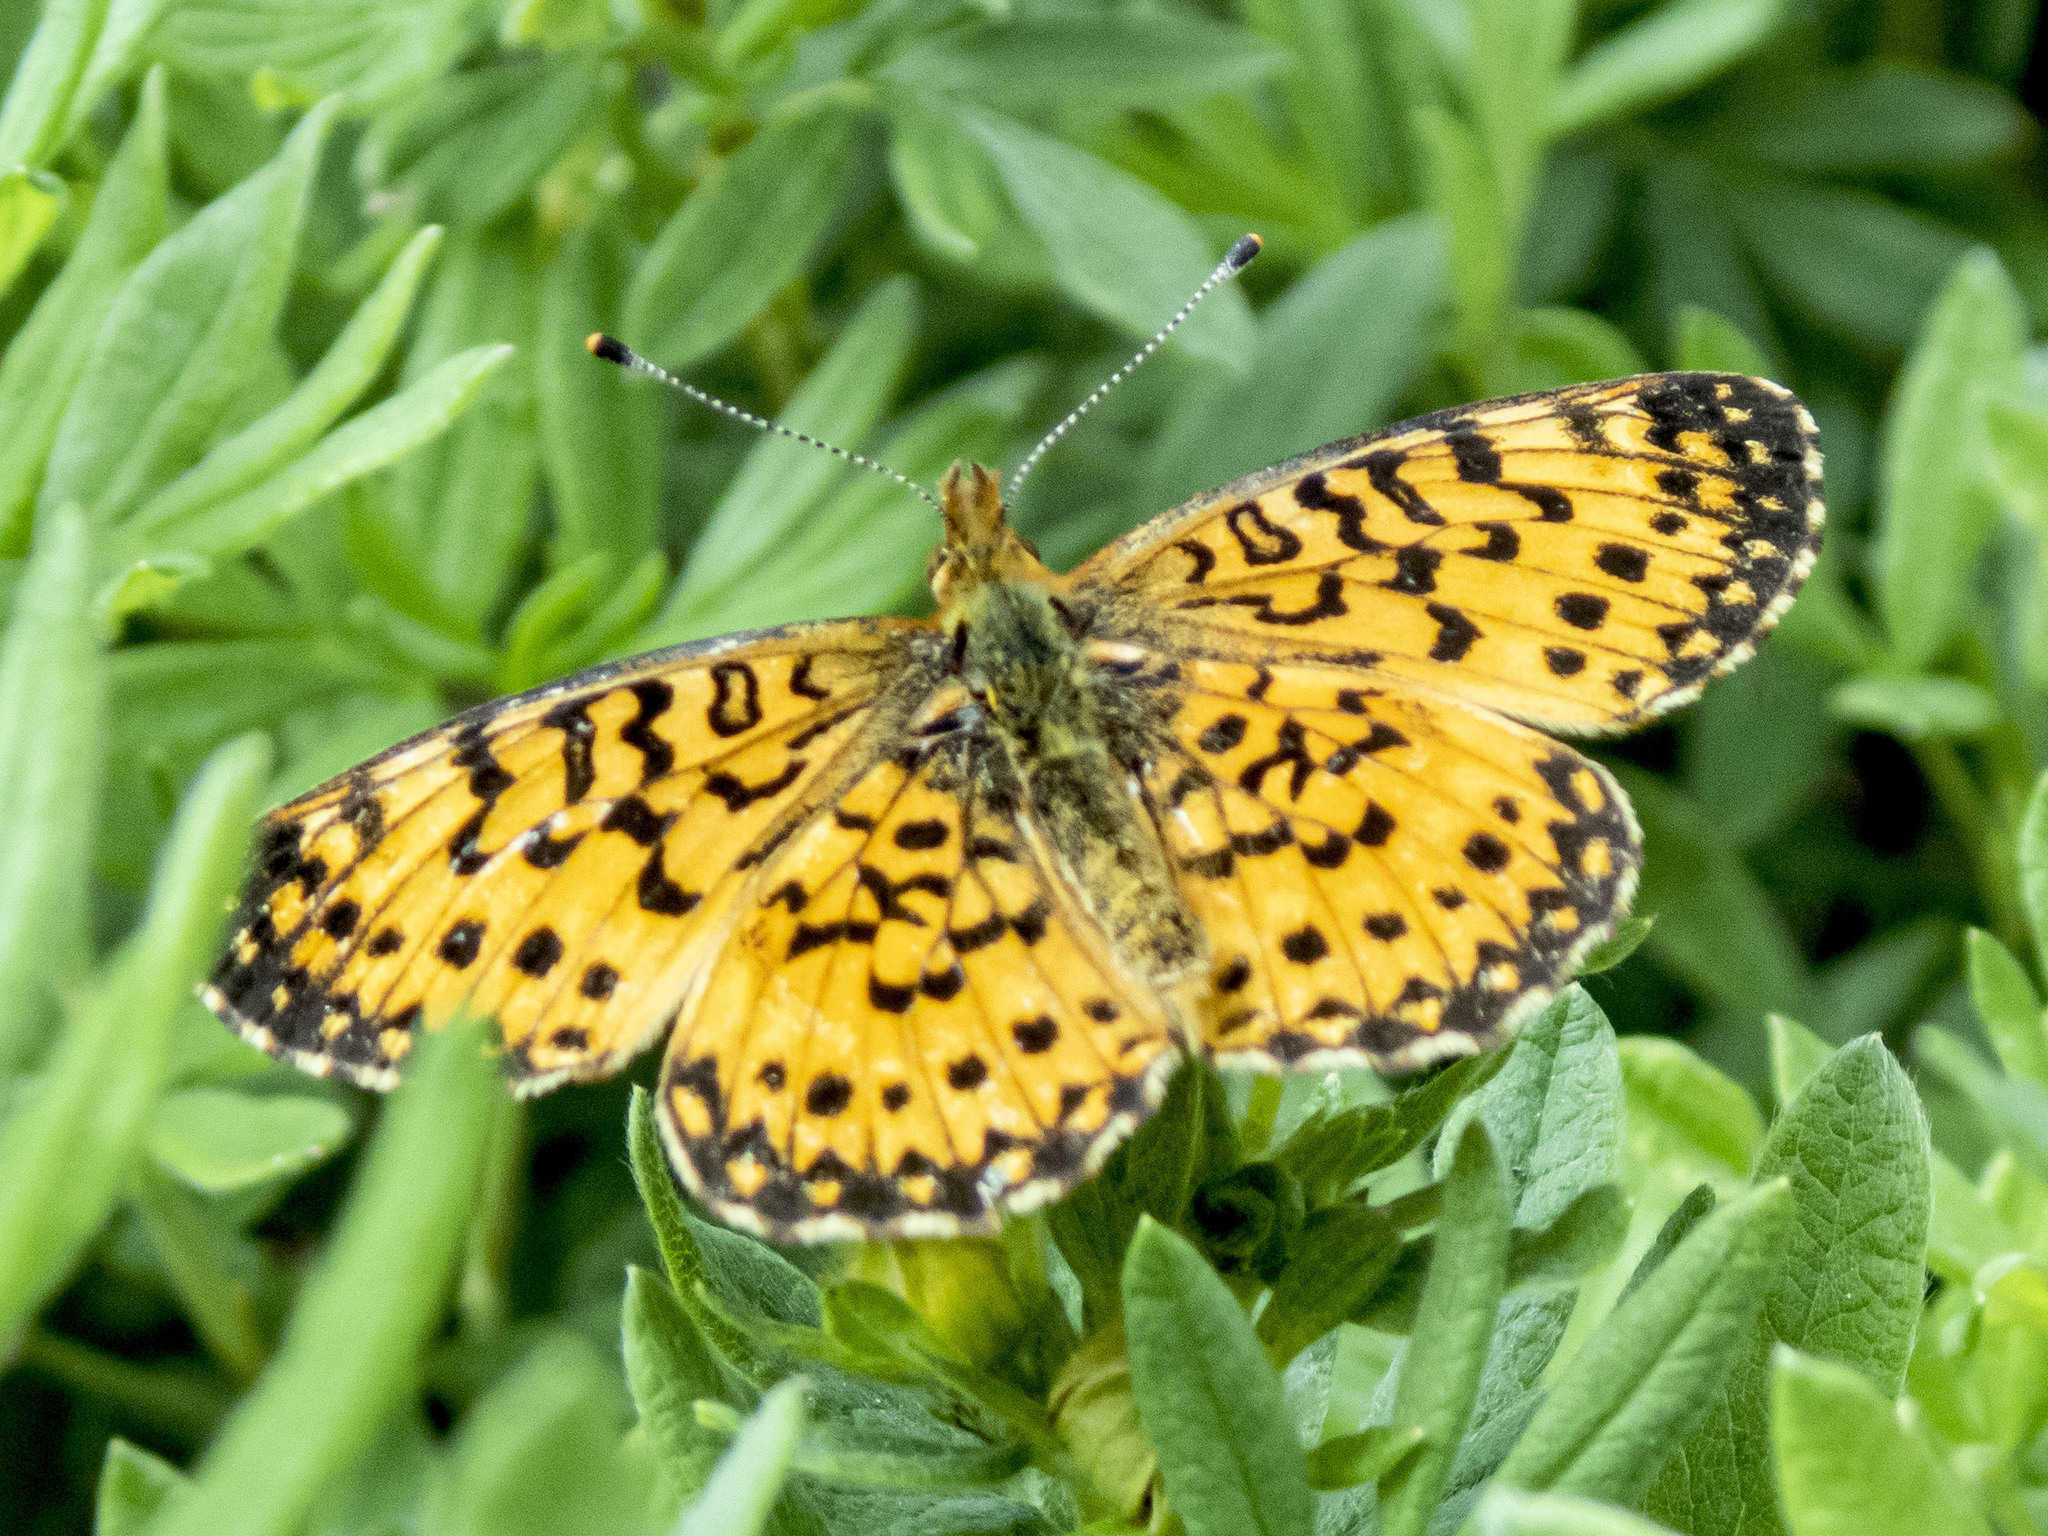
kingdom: Animalia
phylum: Arthropoda
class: Insecta
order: Lepidoptera
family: Nymphalidae
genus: Boloria
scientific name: Boloria
